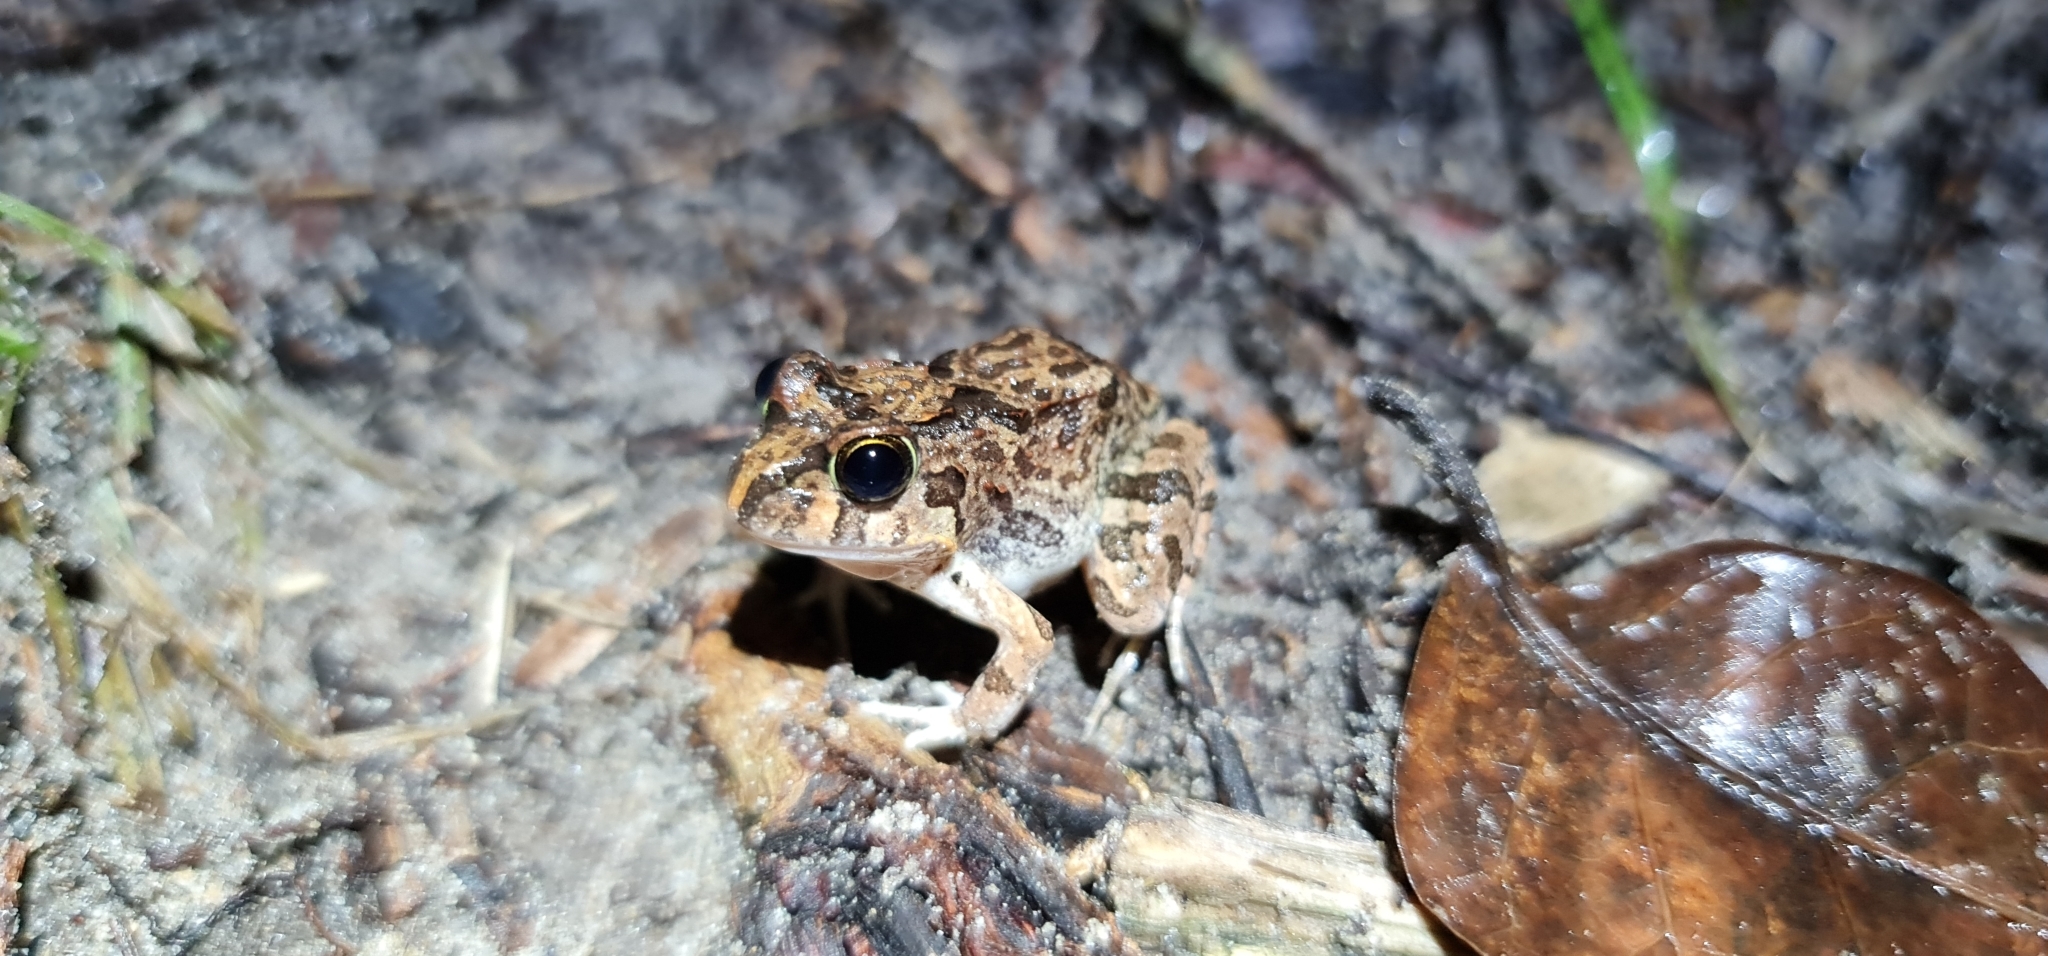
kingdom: Animalia
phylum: Chordata
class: Amphibia
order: Anura
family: Limnodynastidae
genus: Platyplectrum
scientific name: Platyplectrum ornatum
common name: Ornate burrowing frog
